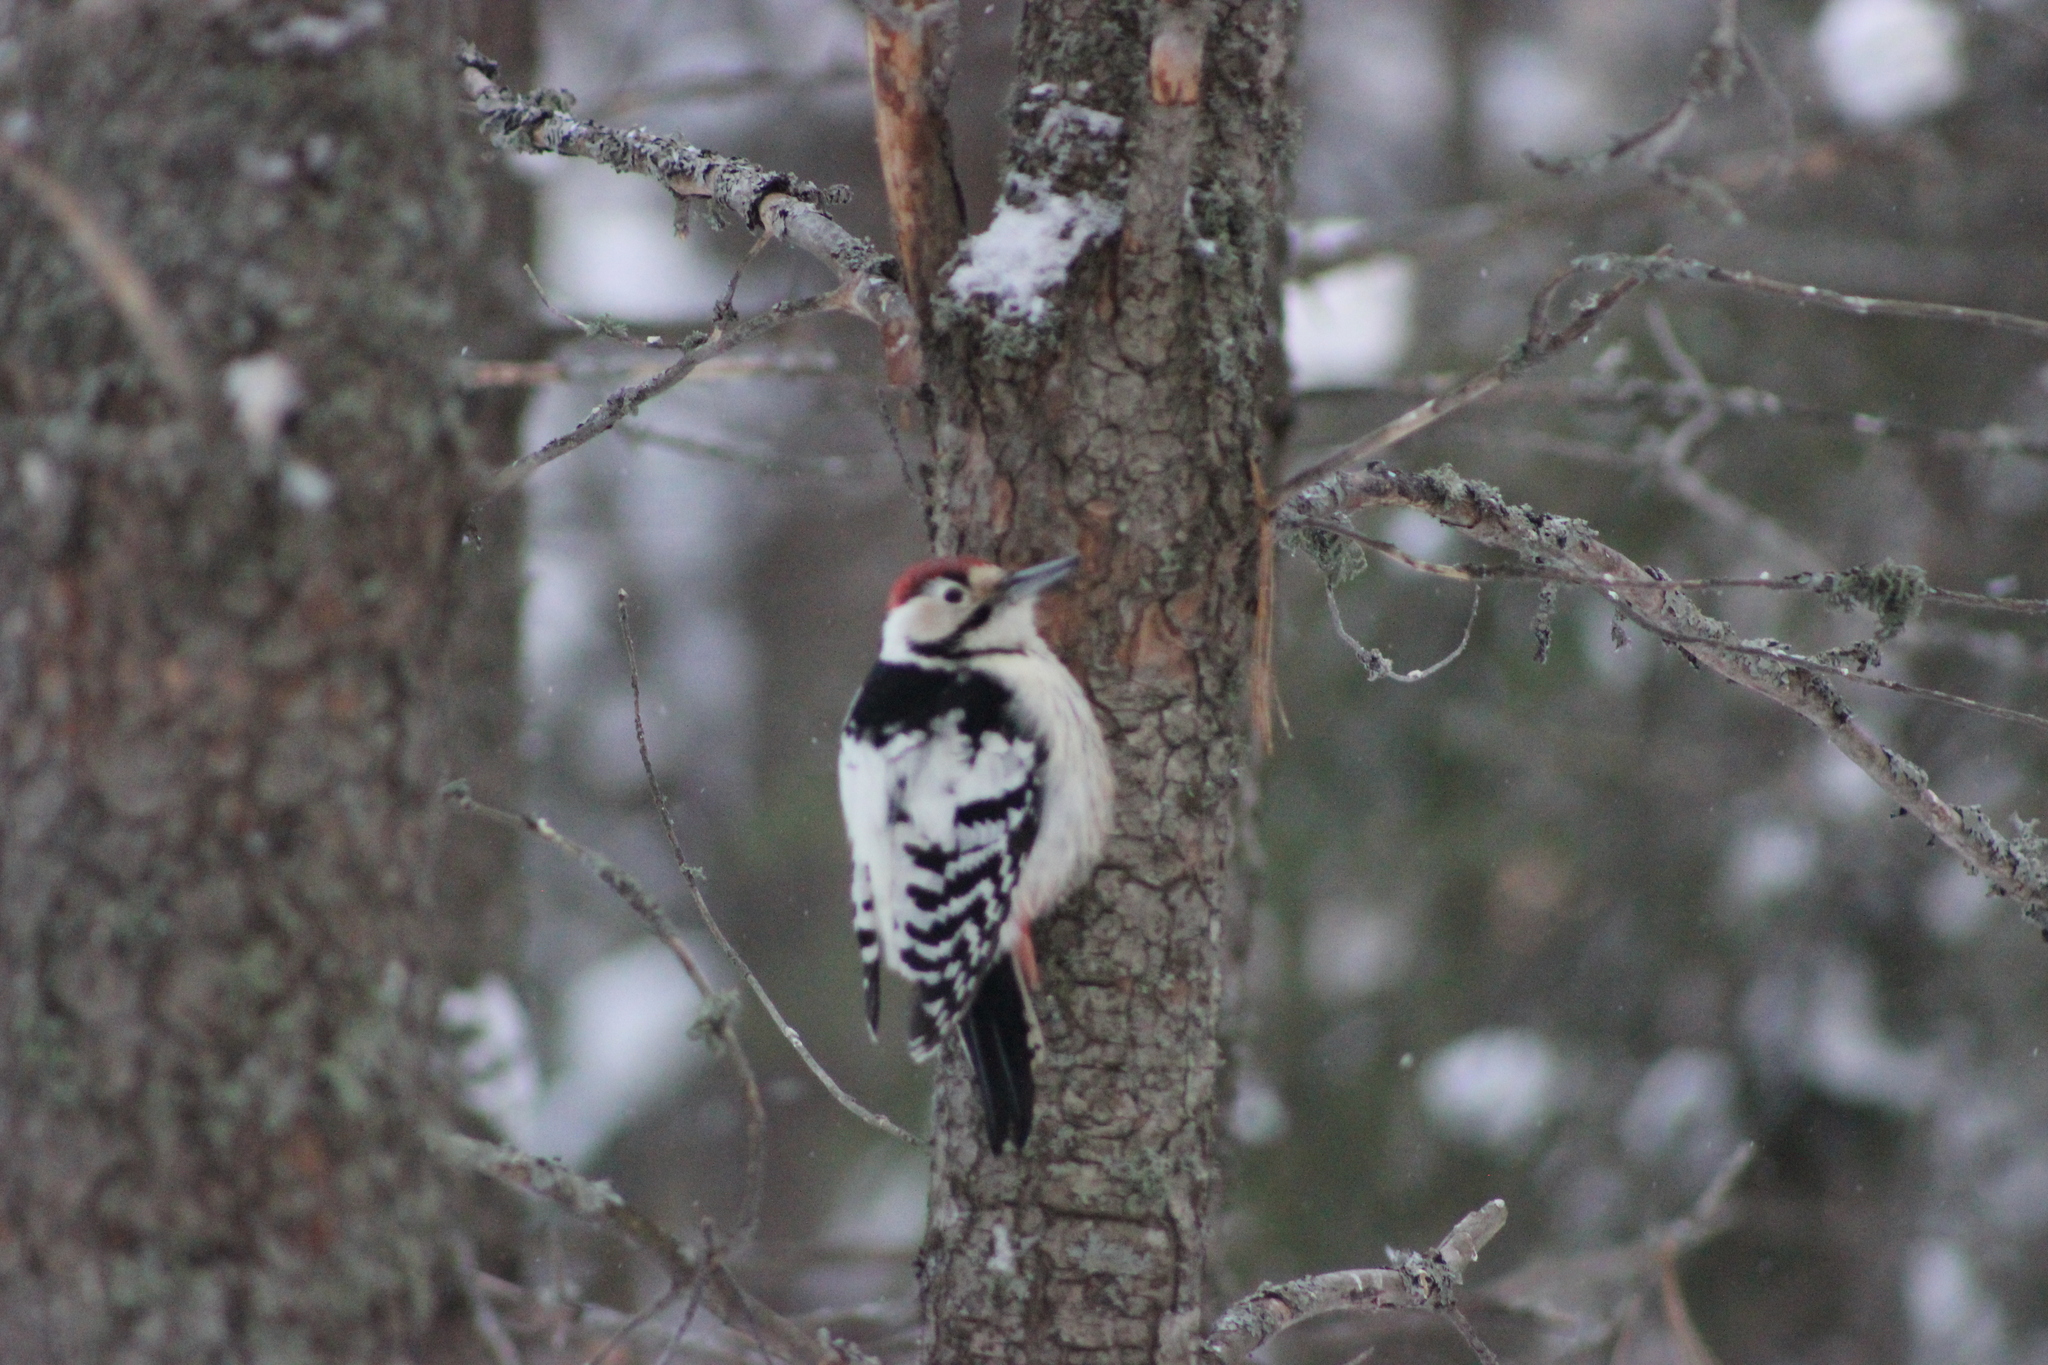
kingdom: Animalia
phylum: Chordata
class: Aves
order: Piciformes
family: Picidae
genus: Dendrocopos
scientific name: Dendrocopos leucotos
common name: White-backed woodpecker
